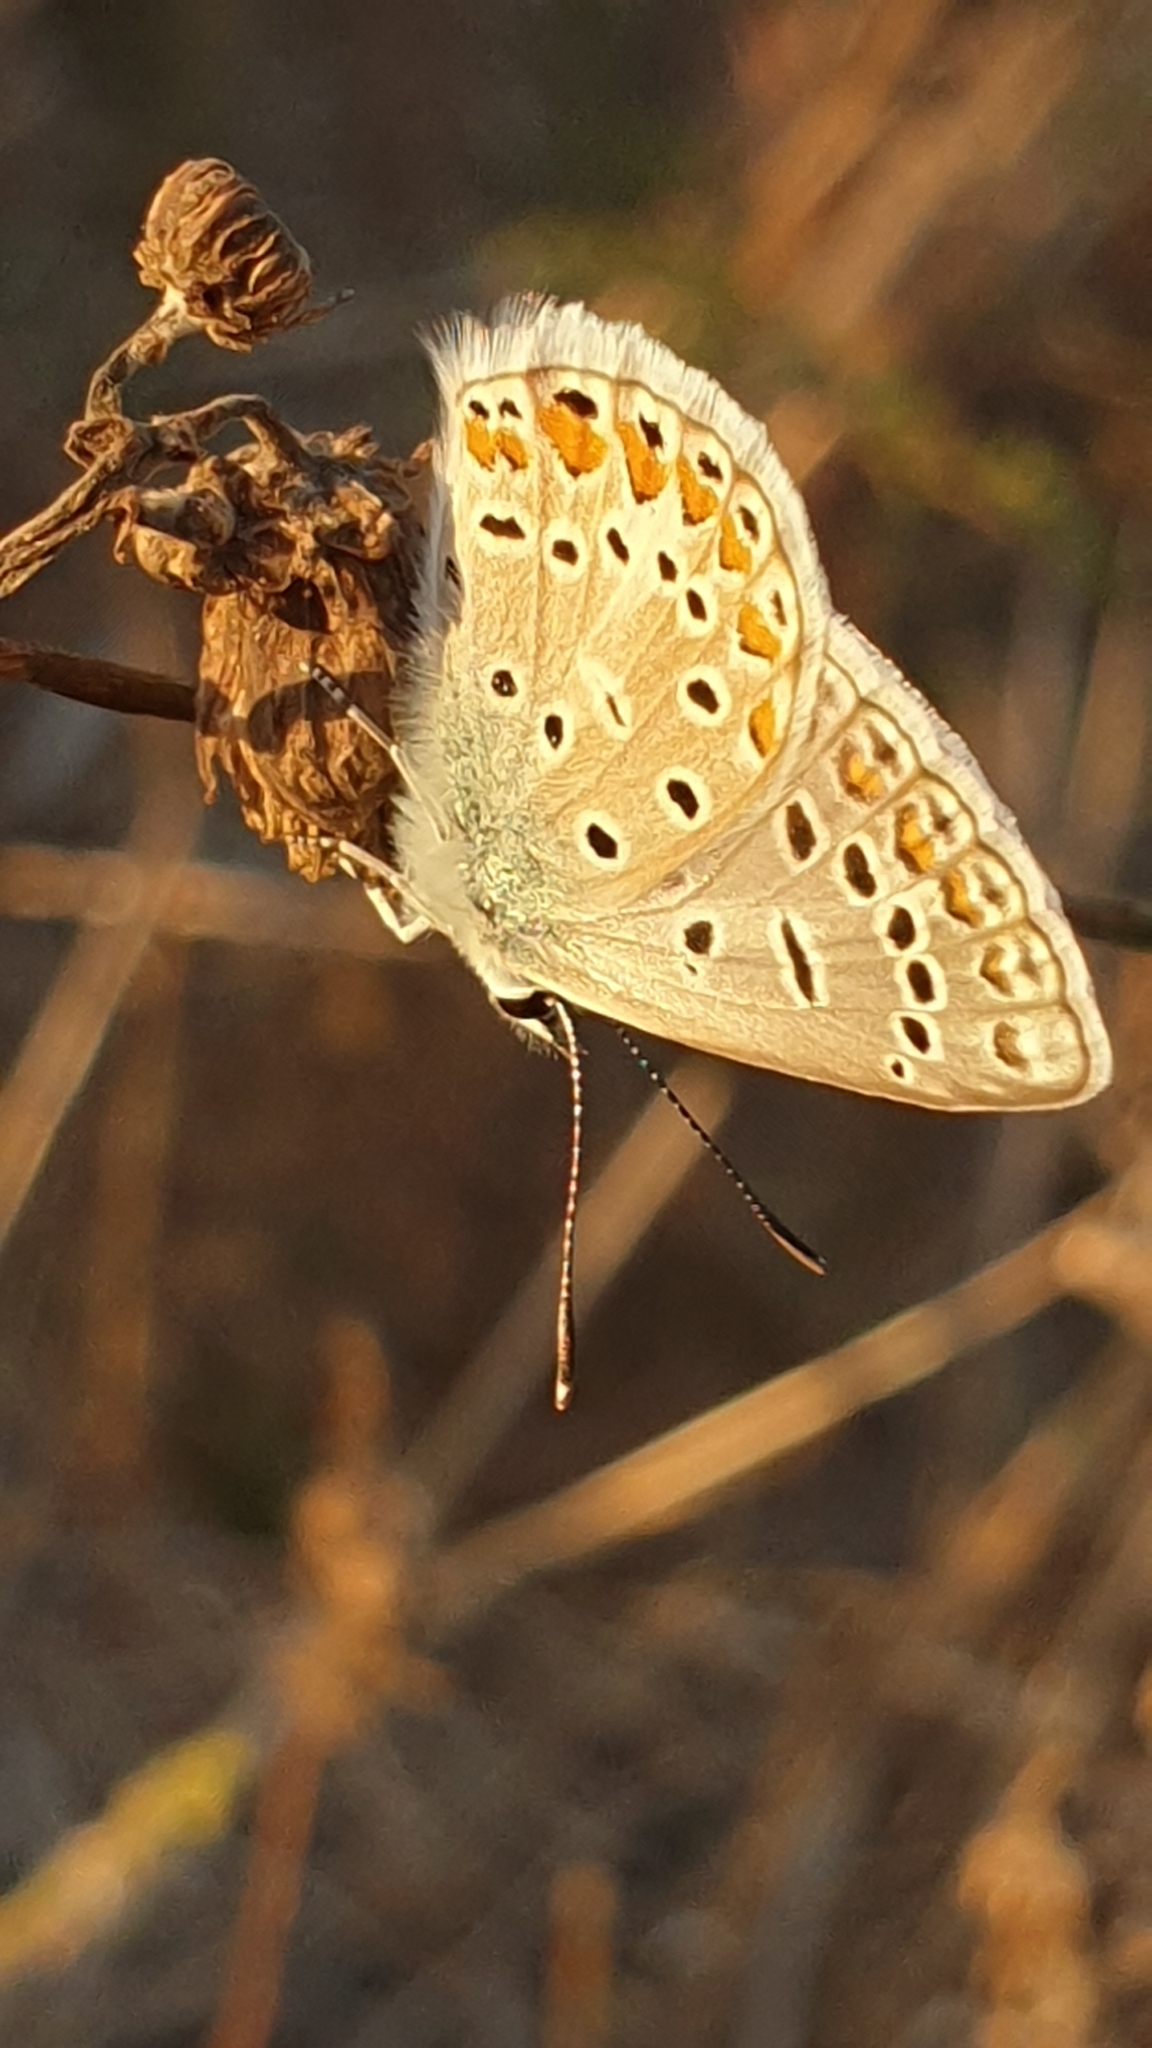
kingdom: Animalia
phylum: Arthropoda
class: Insecta
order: Lepidoptera
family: Lycaenidae
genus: Polyommatus
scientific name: Polyommatus icarus
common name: Common blue
